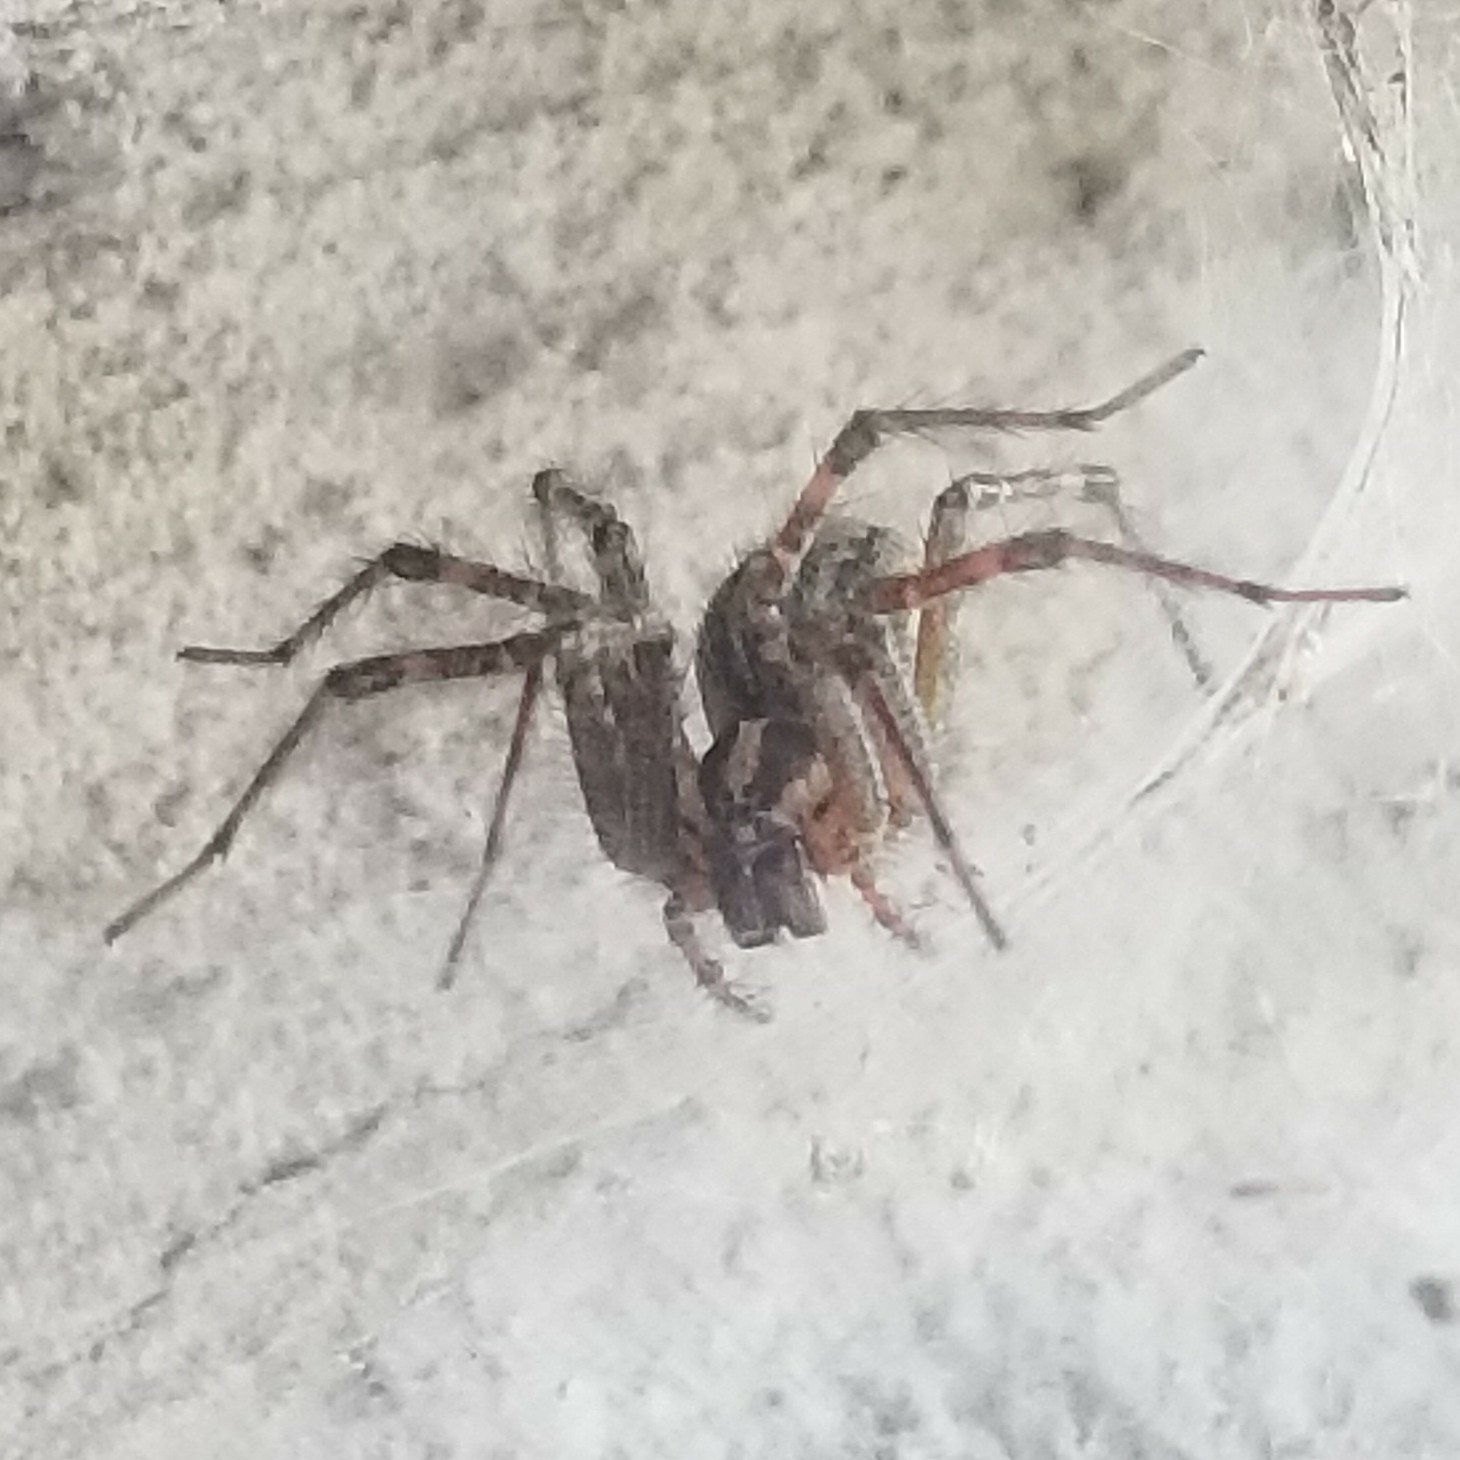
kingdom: Animalia
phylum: Arthropoda
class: Arachnida
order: Araneae
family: Agelenidae
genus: Agelenopsis
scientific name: Agelenopsis
